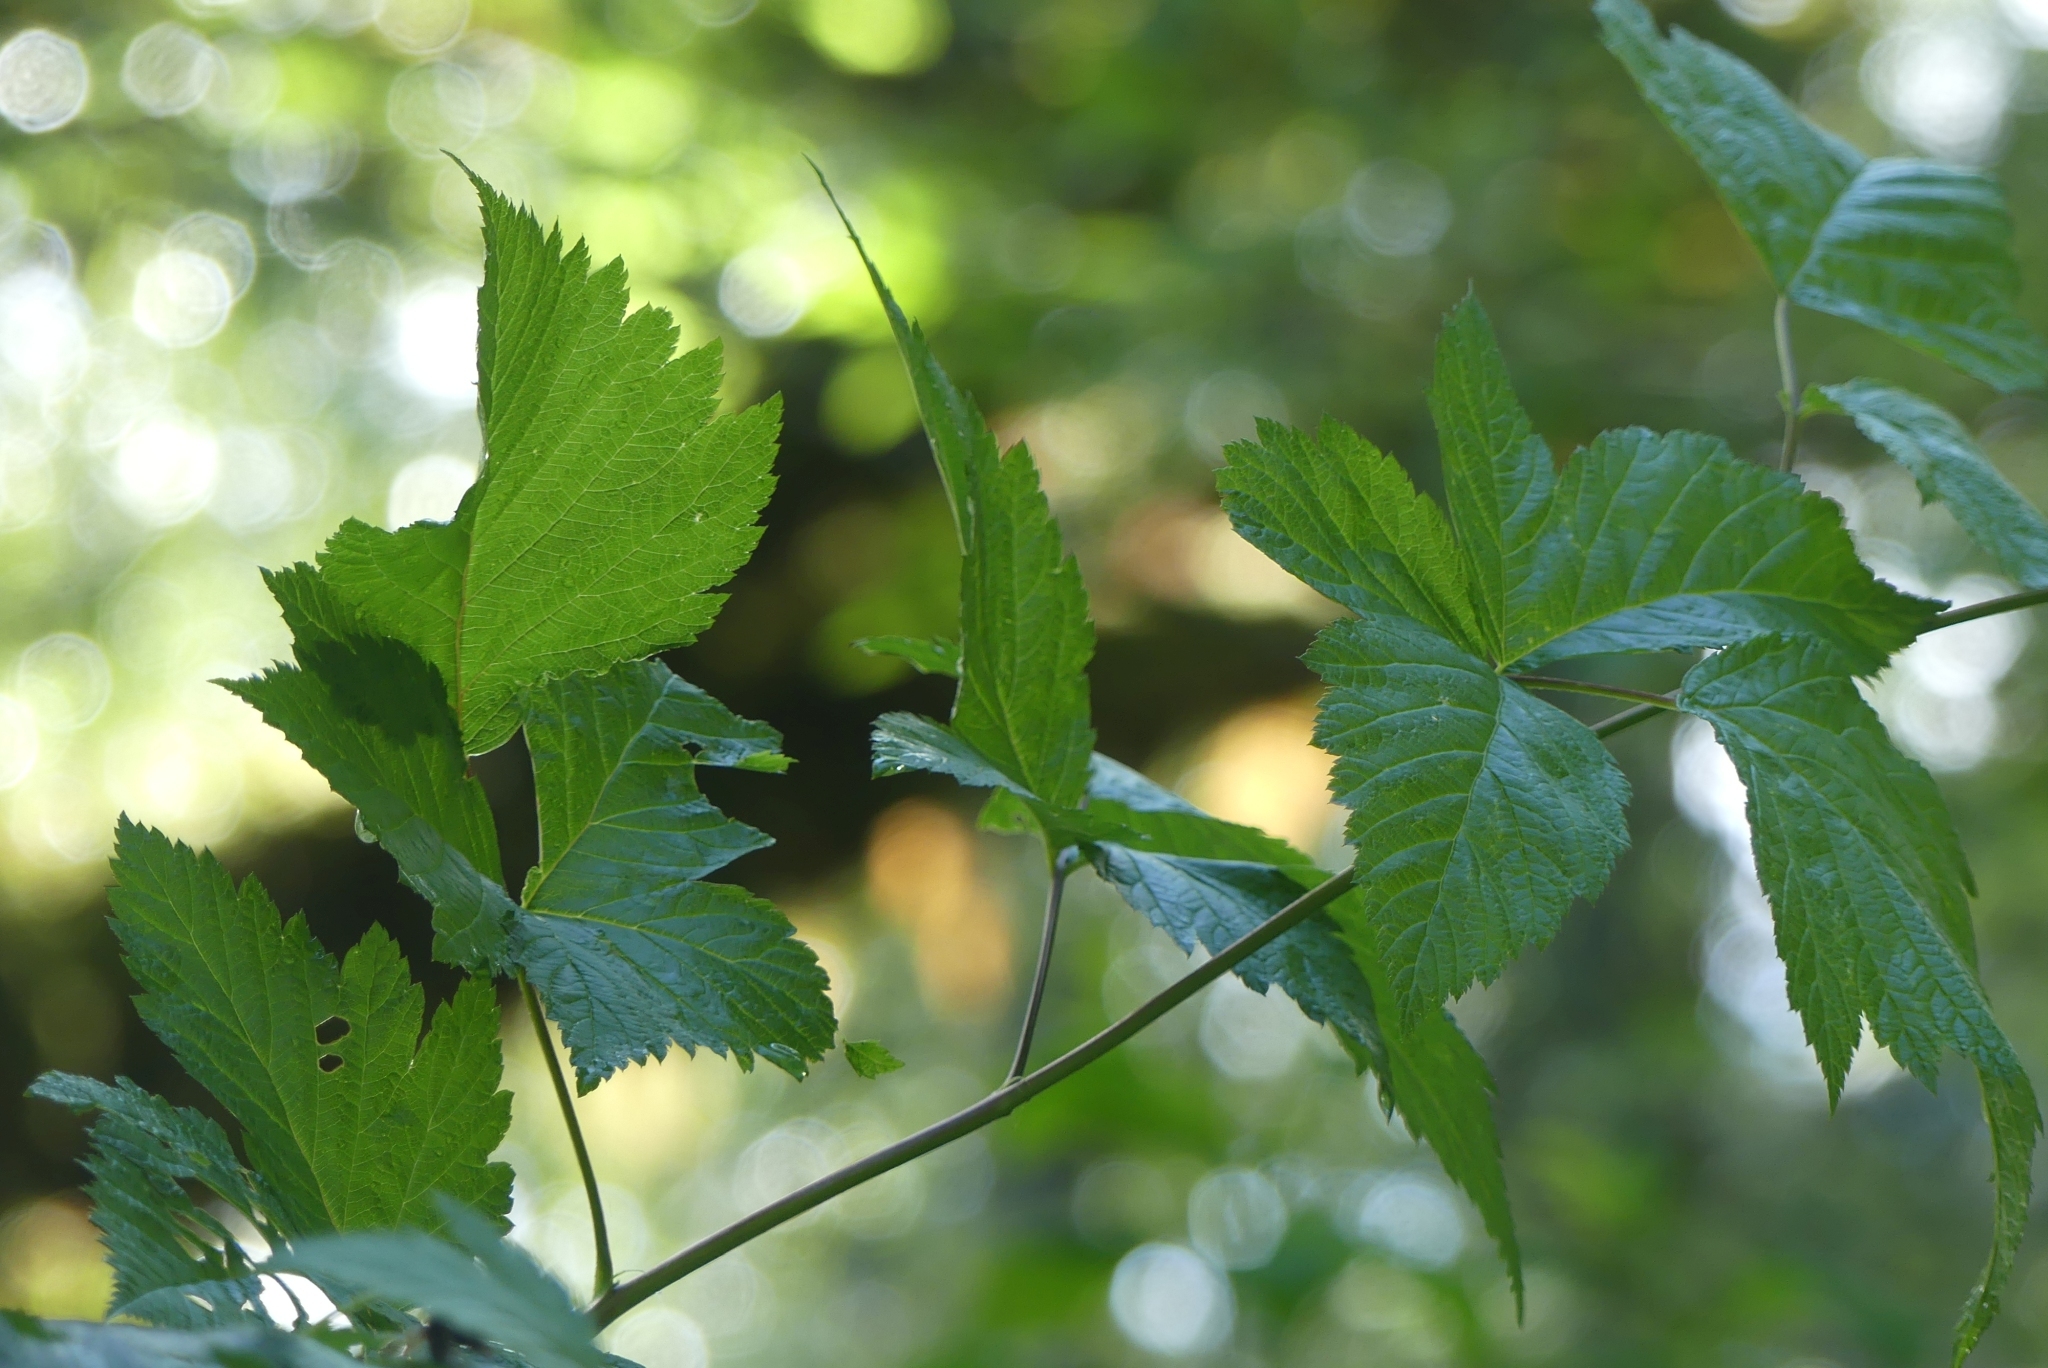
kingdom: Plantae
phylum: Tracheophyta
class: Magnoliopsida
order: Rosales
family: Rosaceae
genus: Rubus
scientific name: Rubus spectabilis
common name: Salmonberry
